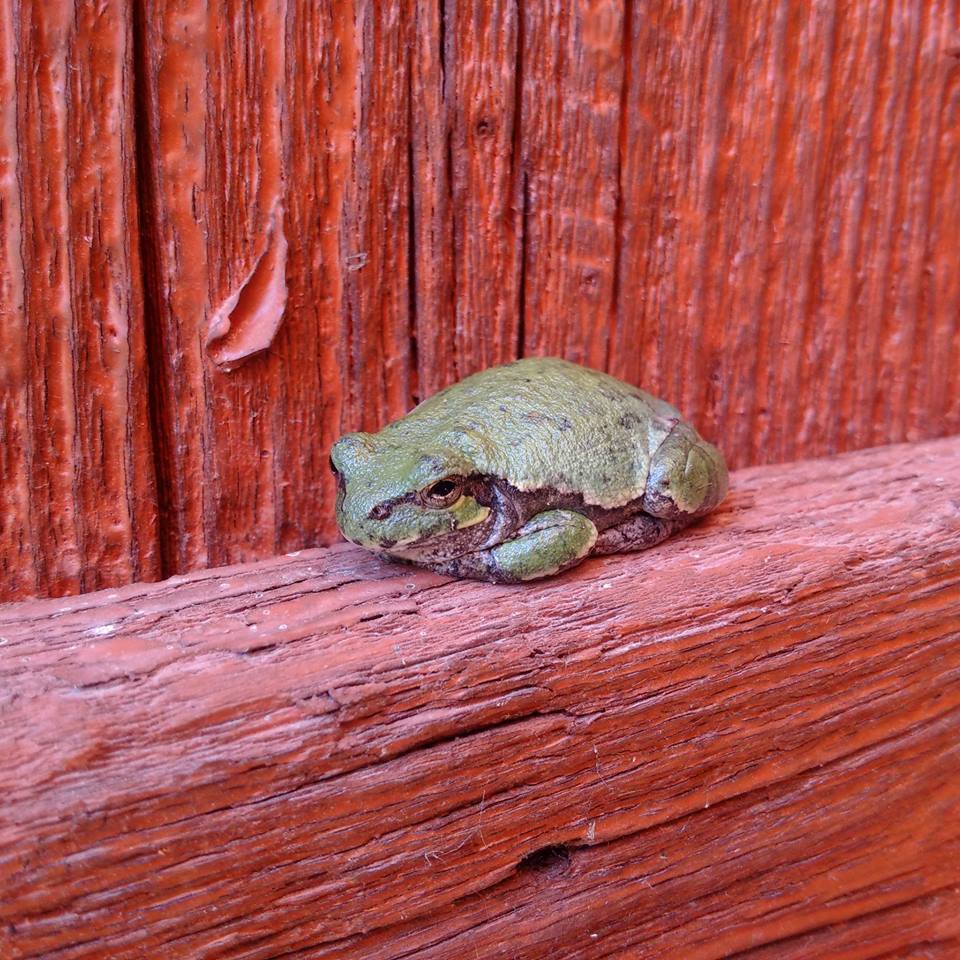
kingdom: Animalia
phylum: Chordata
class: Amphibia
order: Anura
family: Hylidae
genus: Dryophytes
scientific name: Dryophytes versicolor
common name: Gray treefrog
